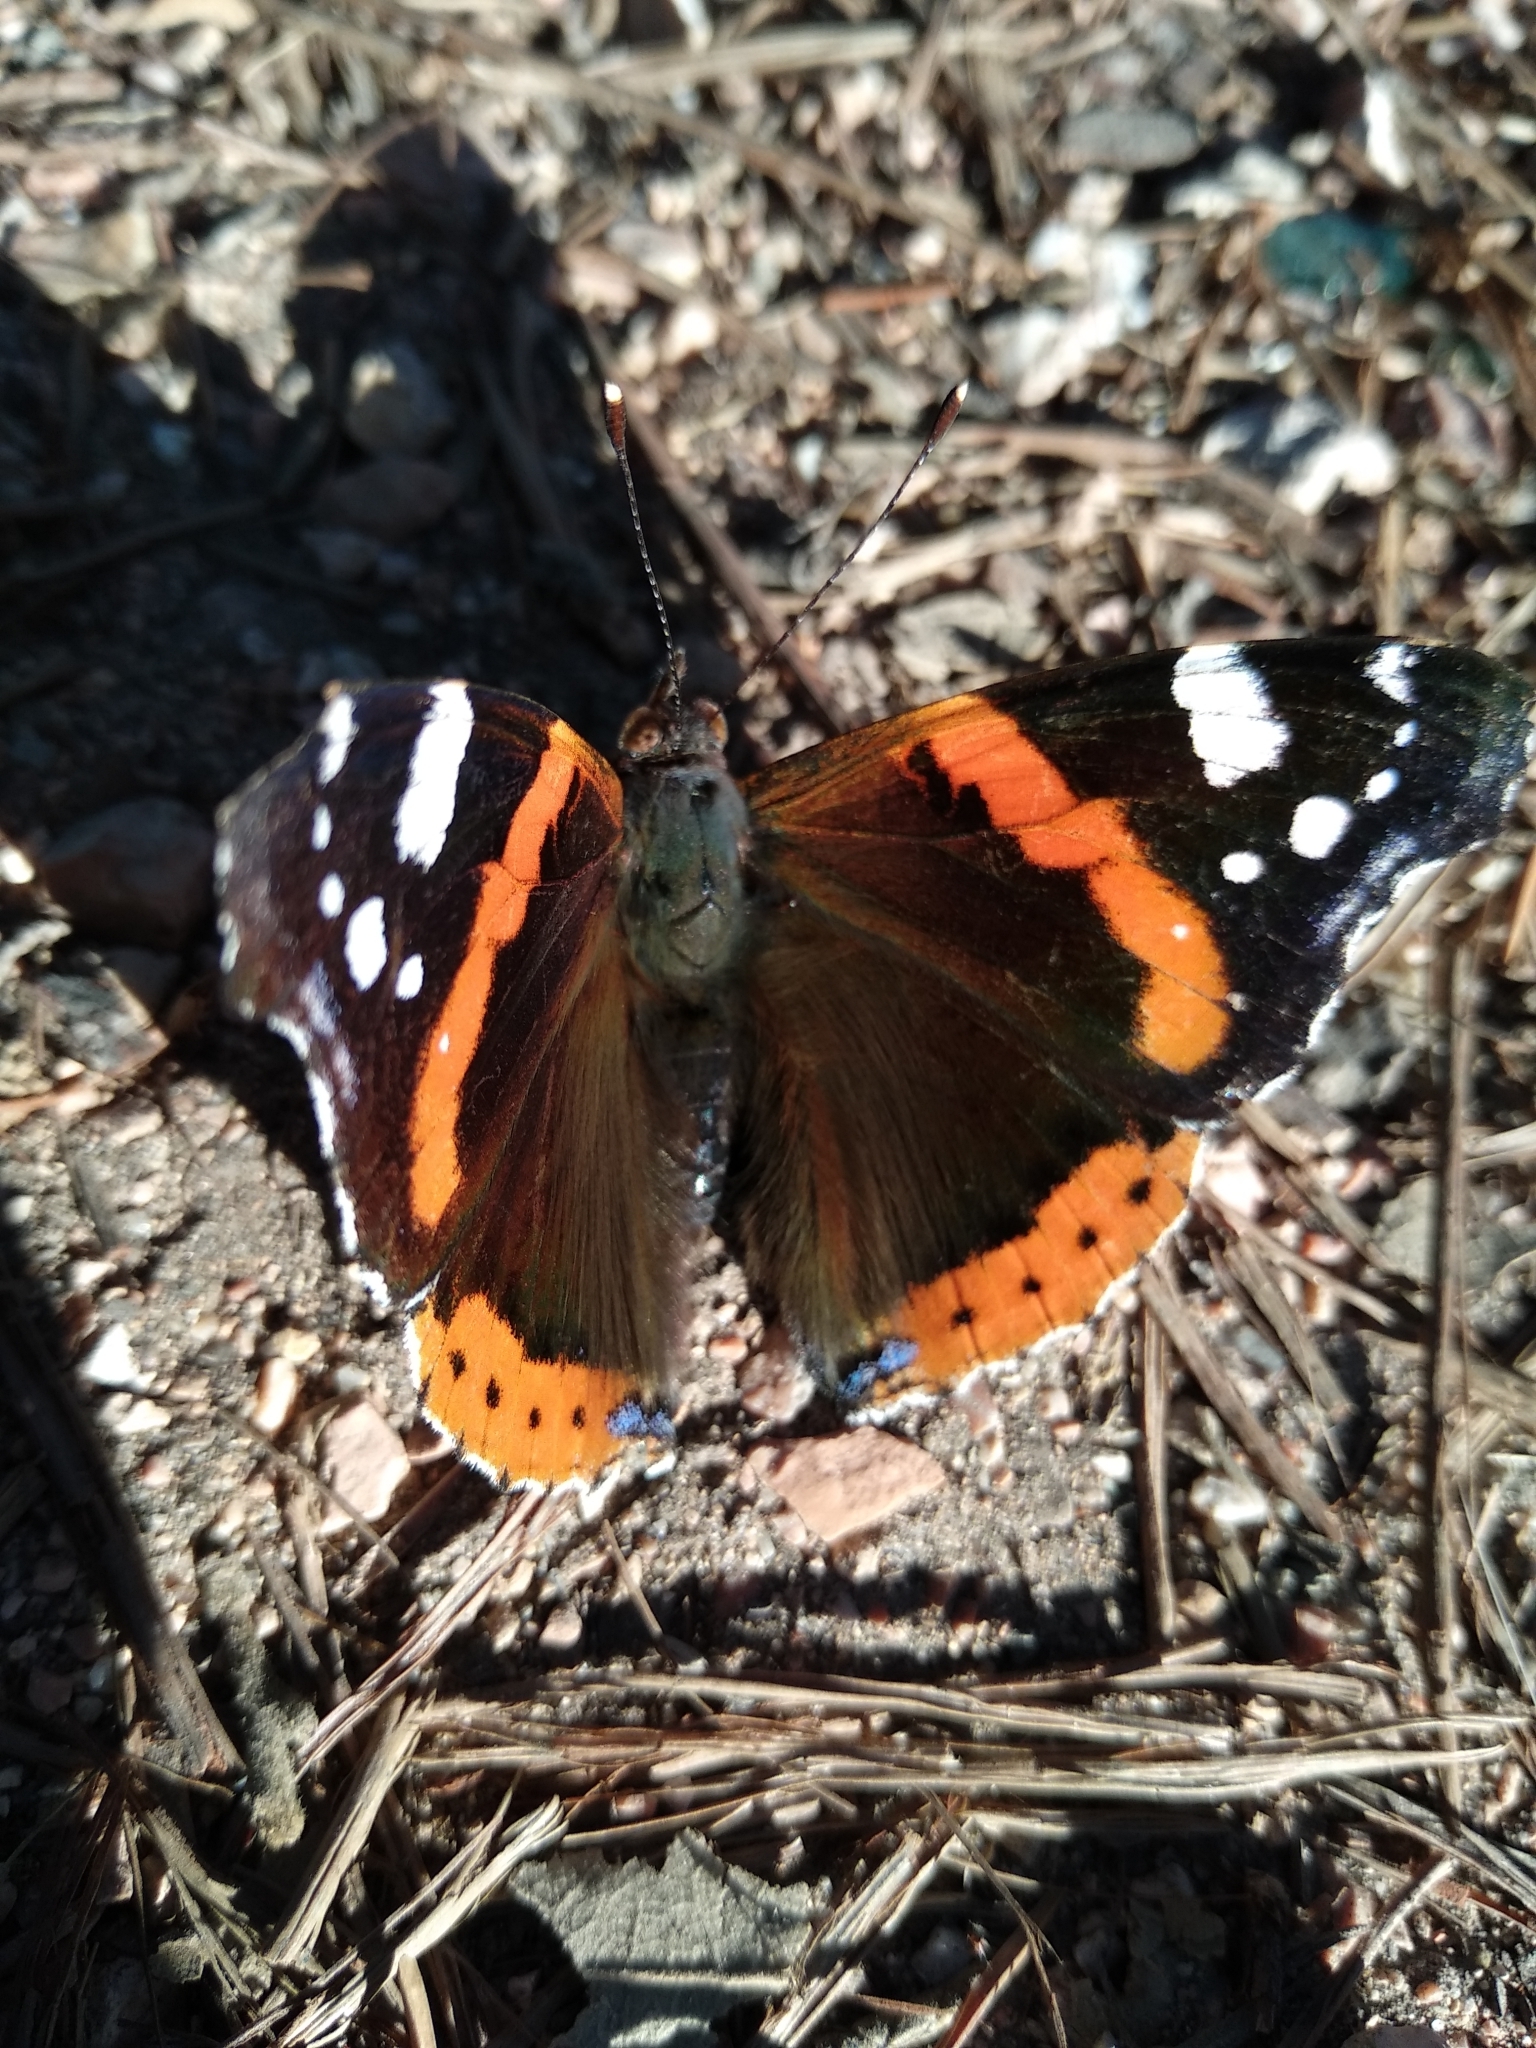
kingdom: Animalia
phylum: Arthropoda
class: Insecta
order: Lepidoptera
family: Nymphalidae
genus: Vanessa
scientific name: Vanessa atalanta
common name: Red admiral
